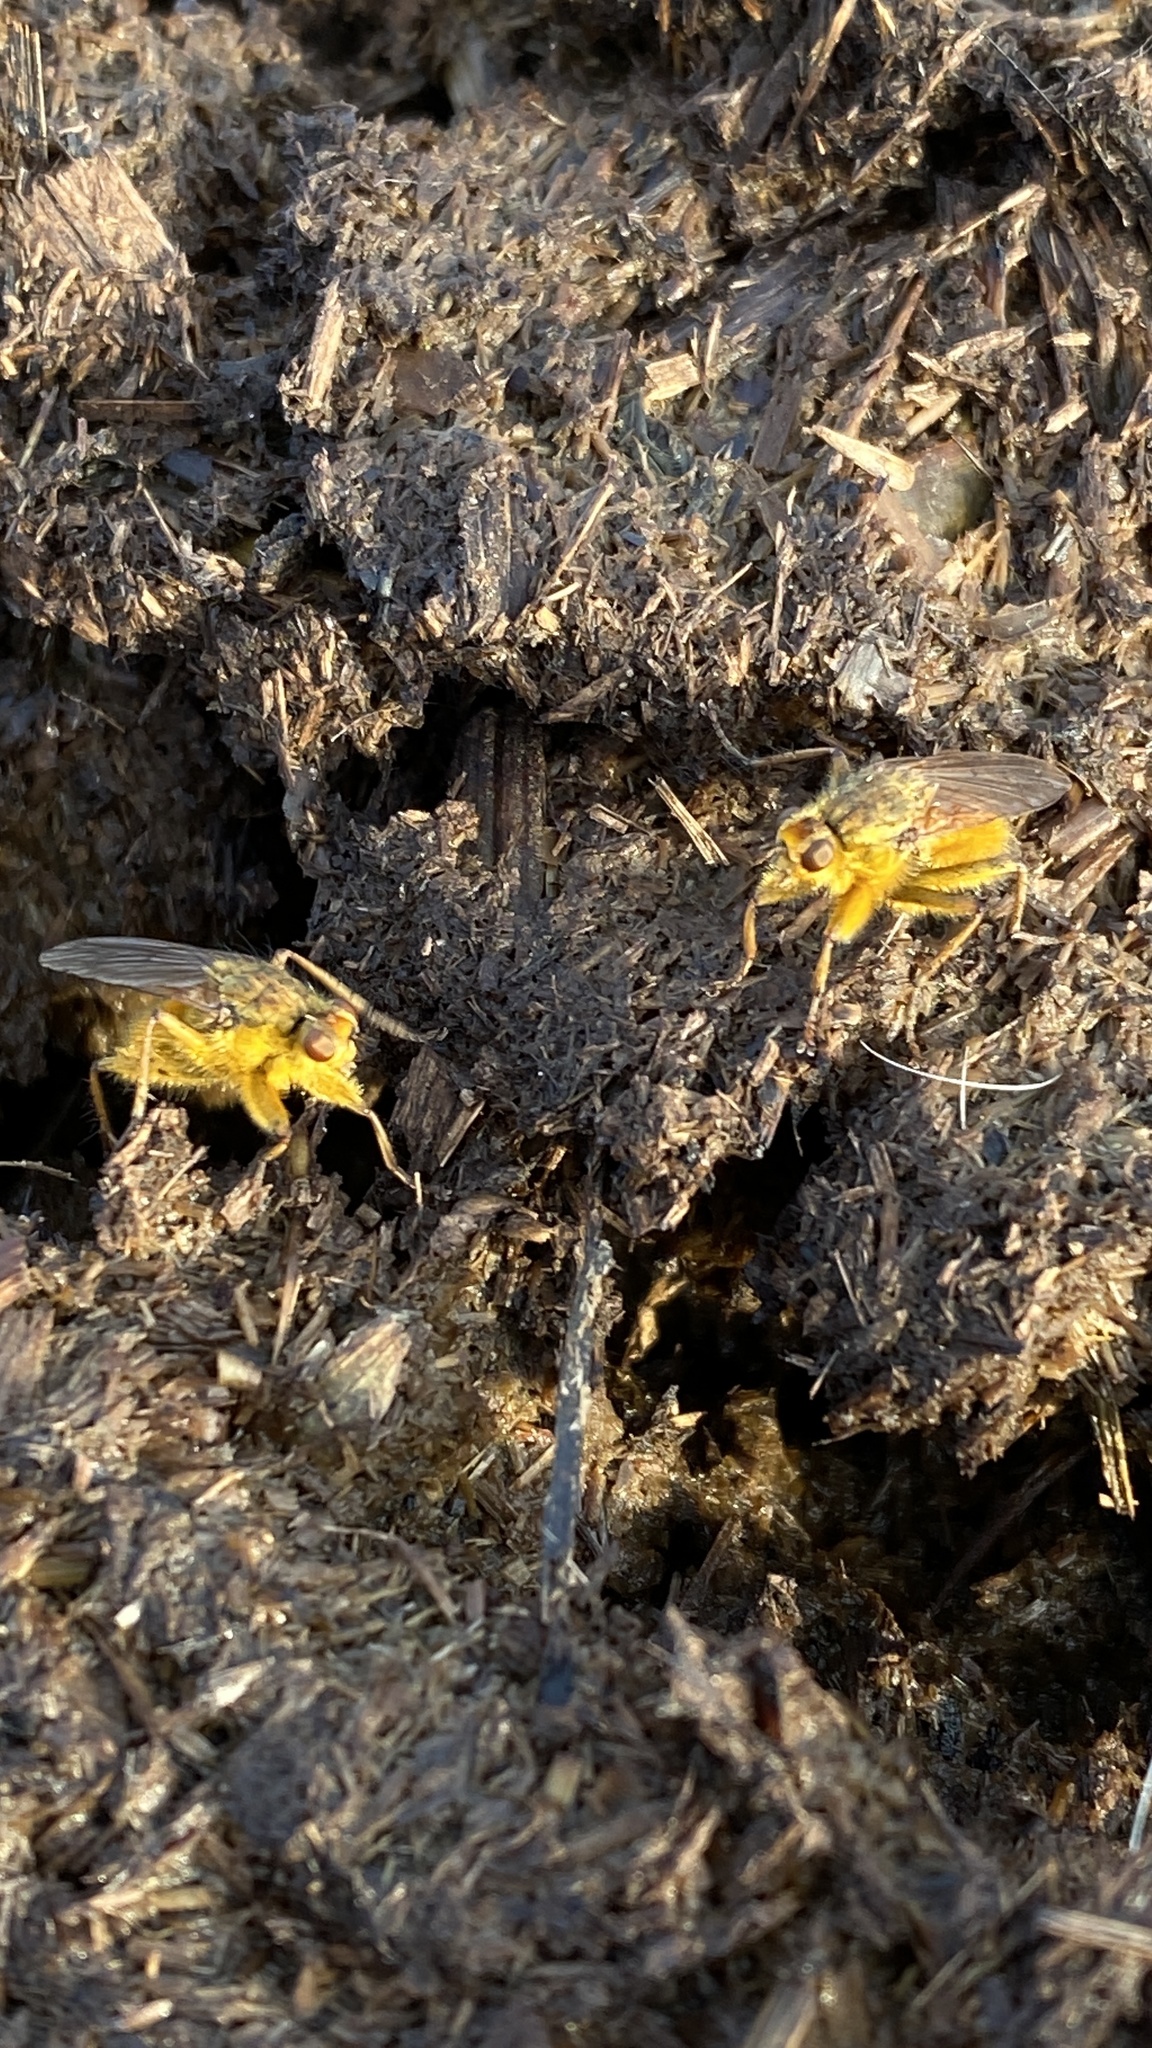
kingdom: Animalia
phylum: Arthropoda
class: Insecta
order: Diptera
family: Scathophagidae
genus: Scathophaga
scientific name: Scathophaga stercoraria
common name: Yellow dung fly
